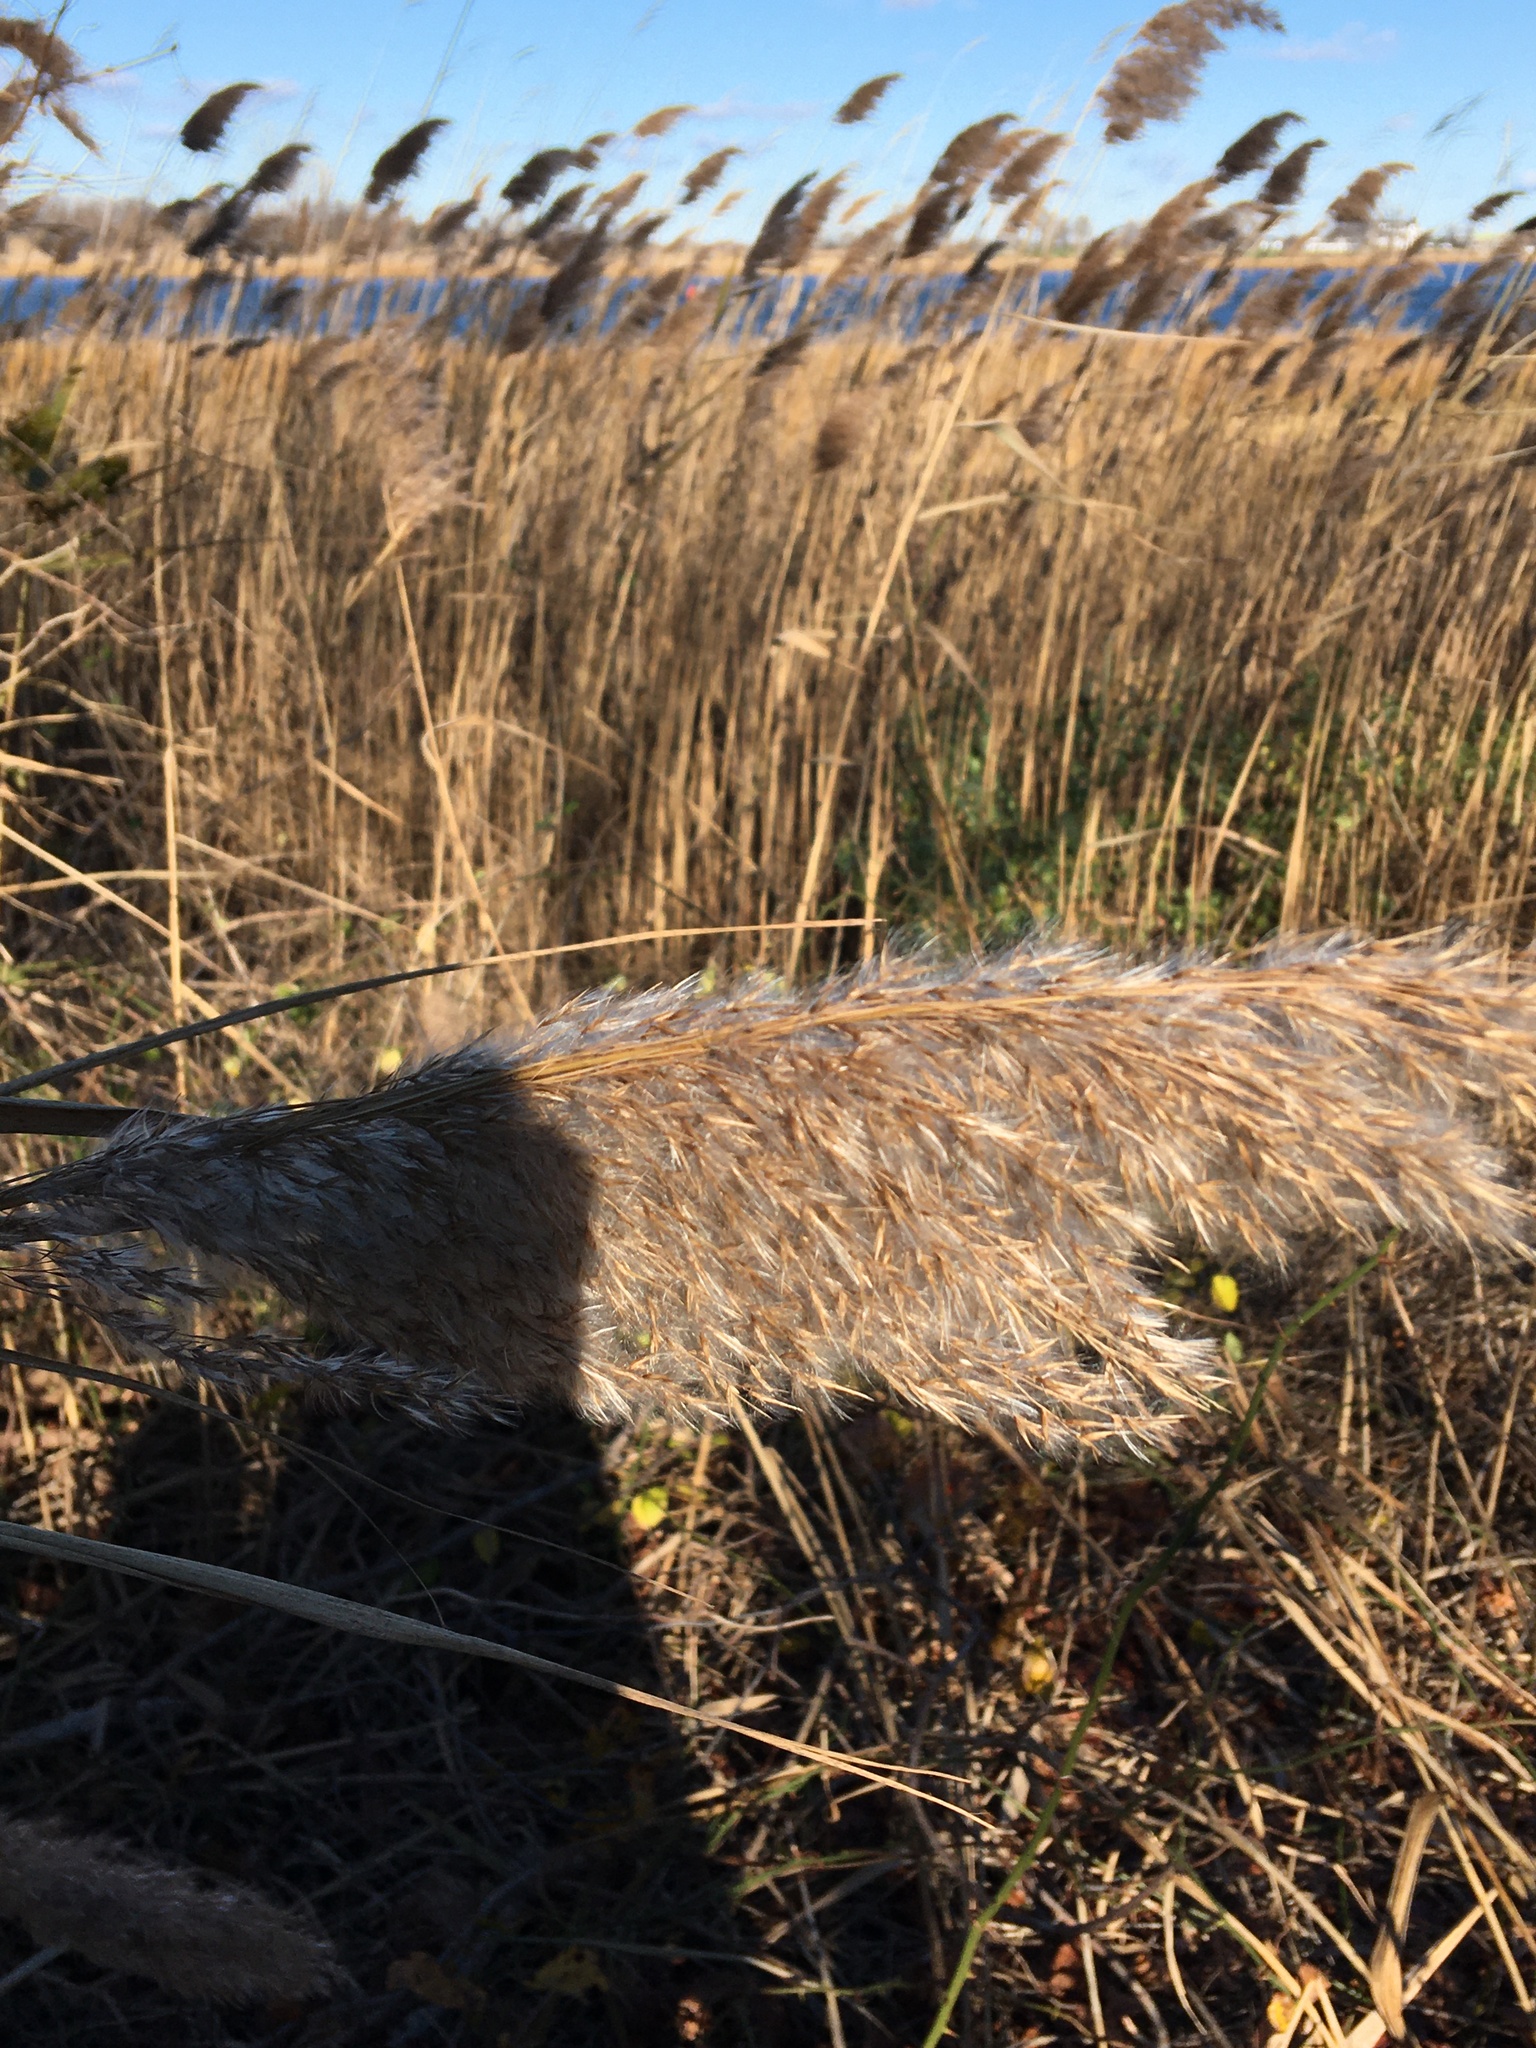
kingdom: Plantae
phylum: Tracheophyta
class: Liliopsida
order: Poales
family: Poaceae
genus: Phragmites
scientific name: Phragmites australis
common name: Common reed
